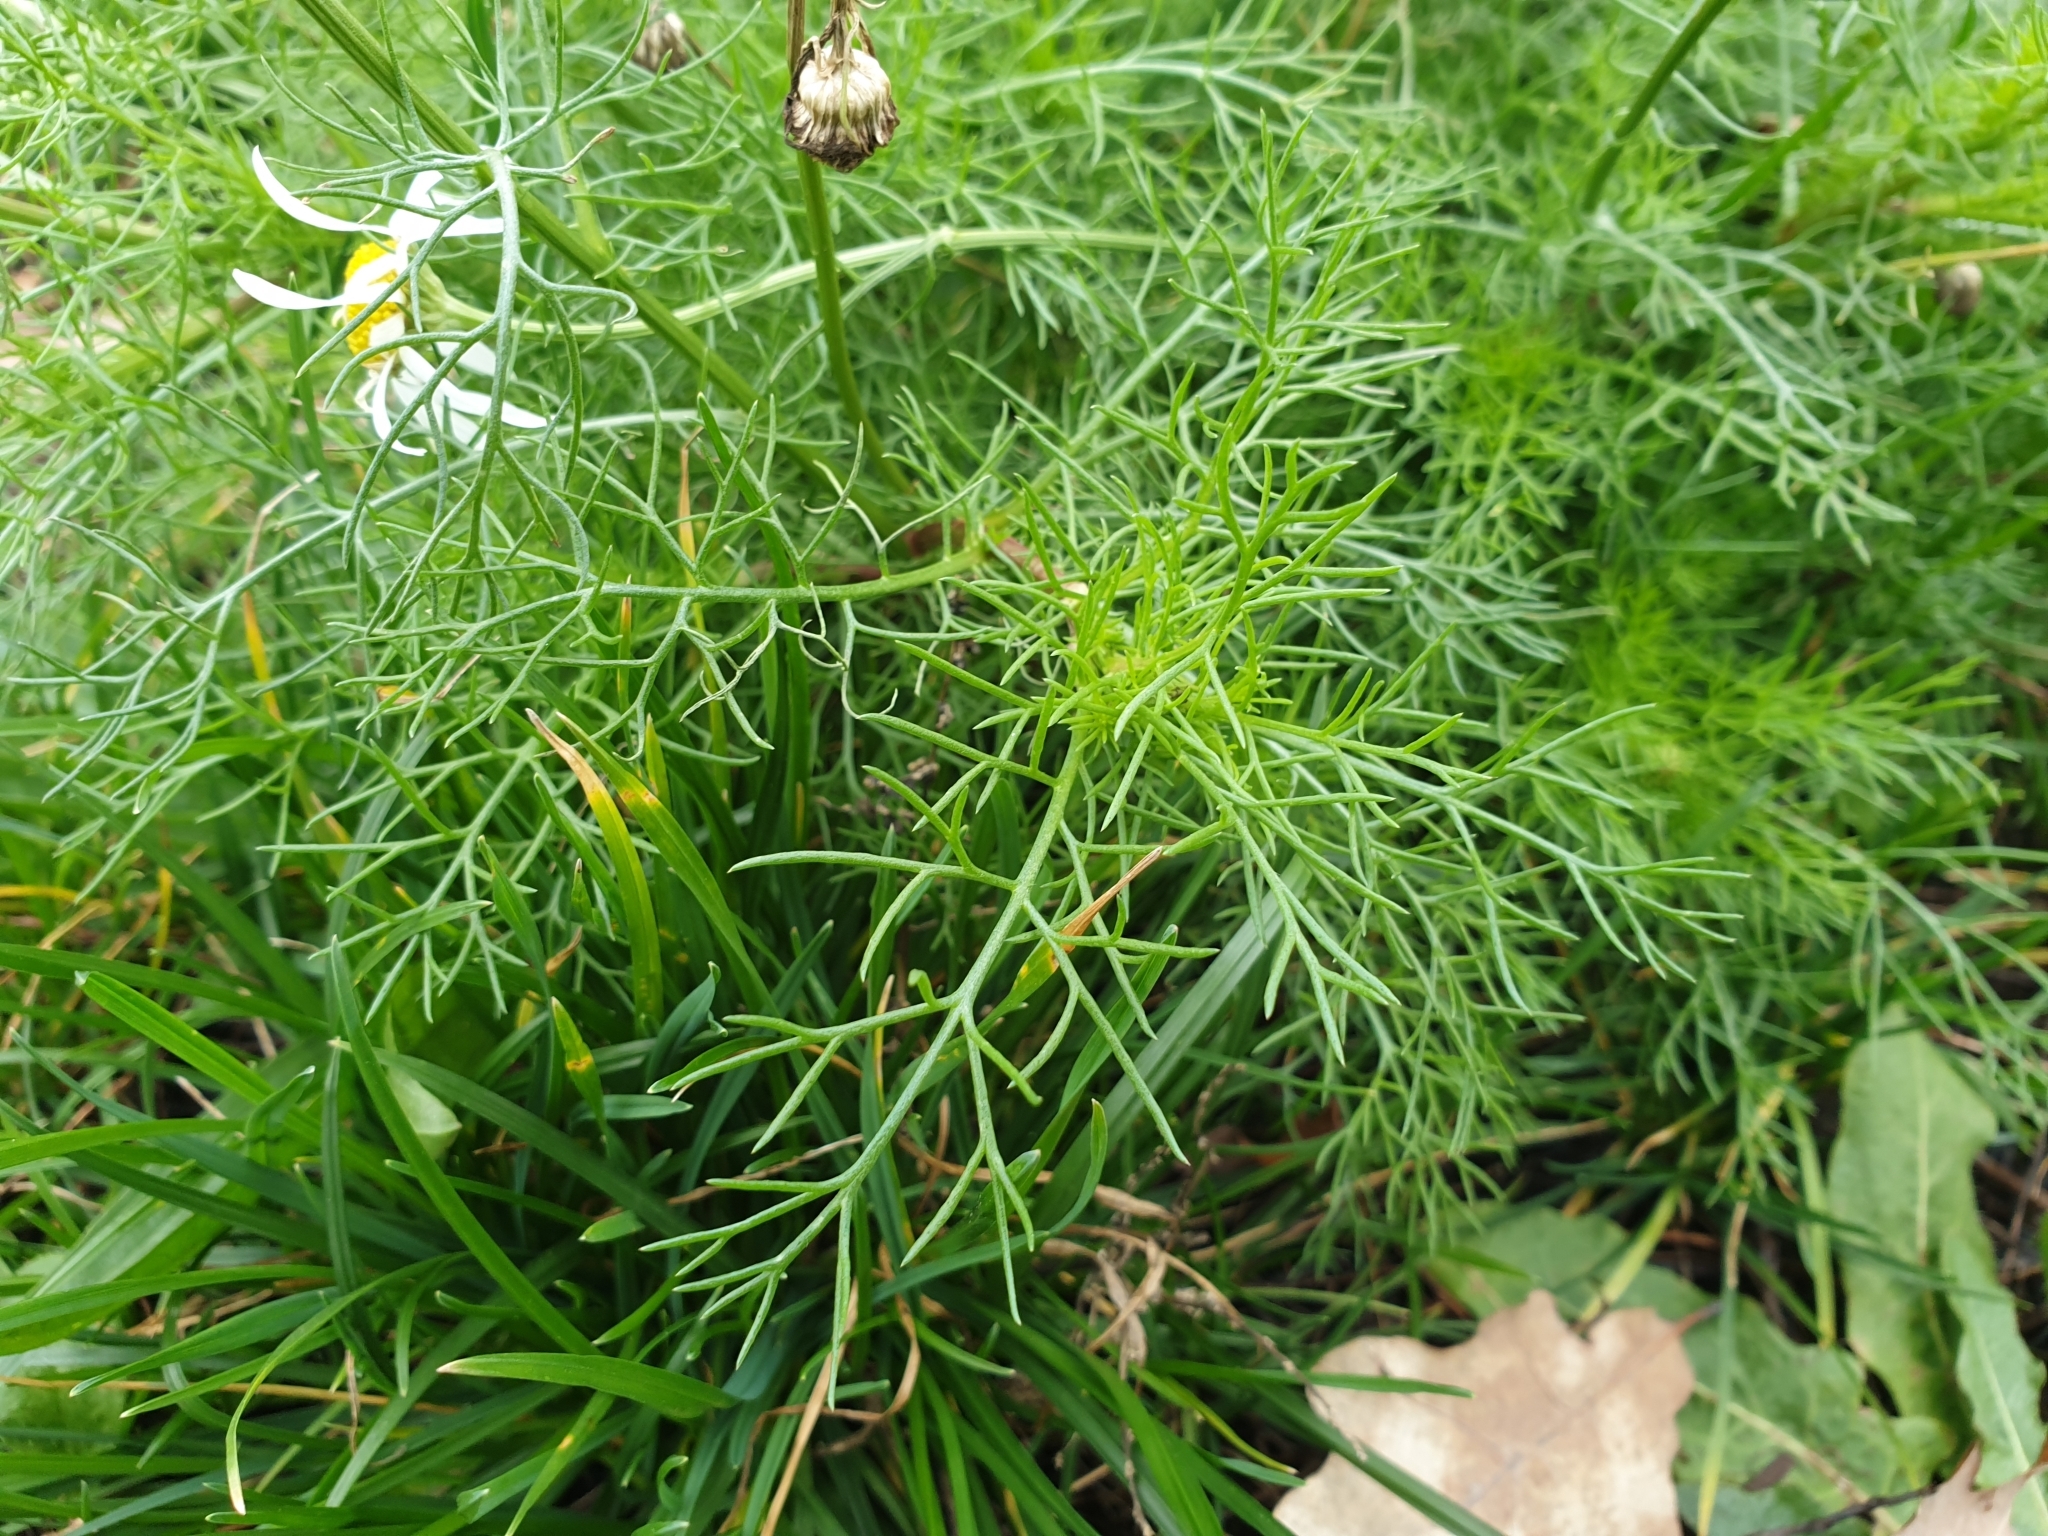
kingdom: Plantae
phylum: Tracheophyta
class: Magnoliopsida
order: Asterales
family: Asteraceae
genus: Tripleurospermum
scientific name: Tripleurospermum inodorum
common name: Scentless mayweed
